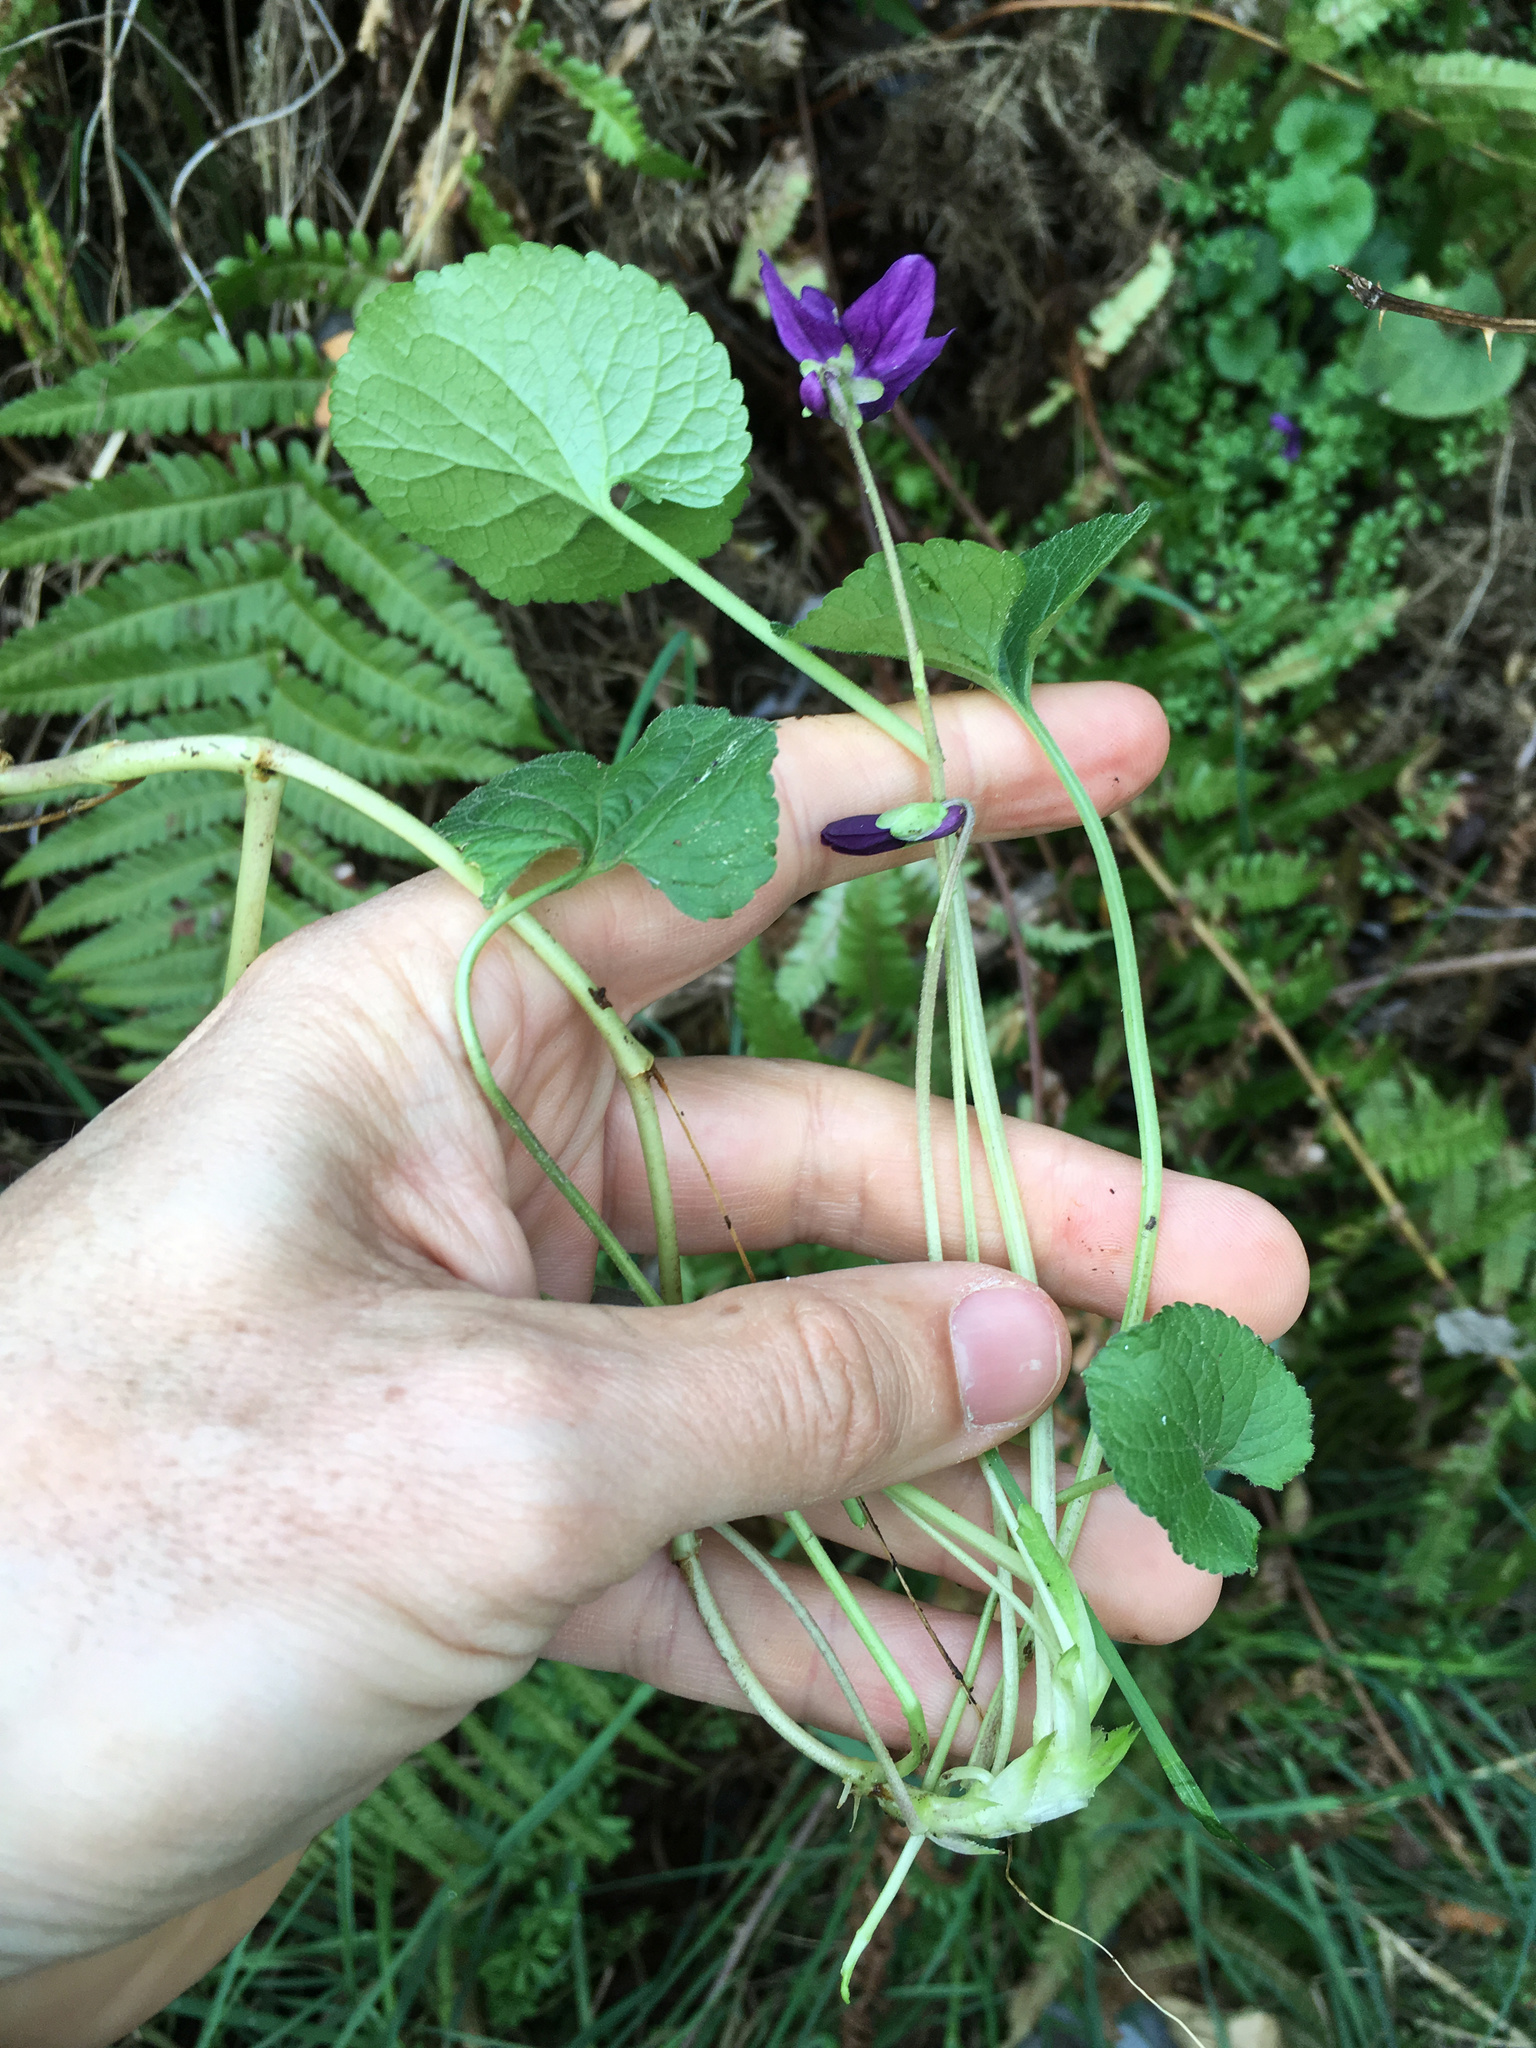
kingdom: Plantae
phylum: Tracheophyta
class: Magnoliopsida
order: Malpighiales
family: Violaceae
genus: Viola
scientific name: Viola odorata
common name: Sweet violet
